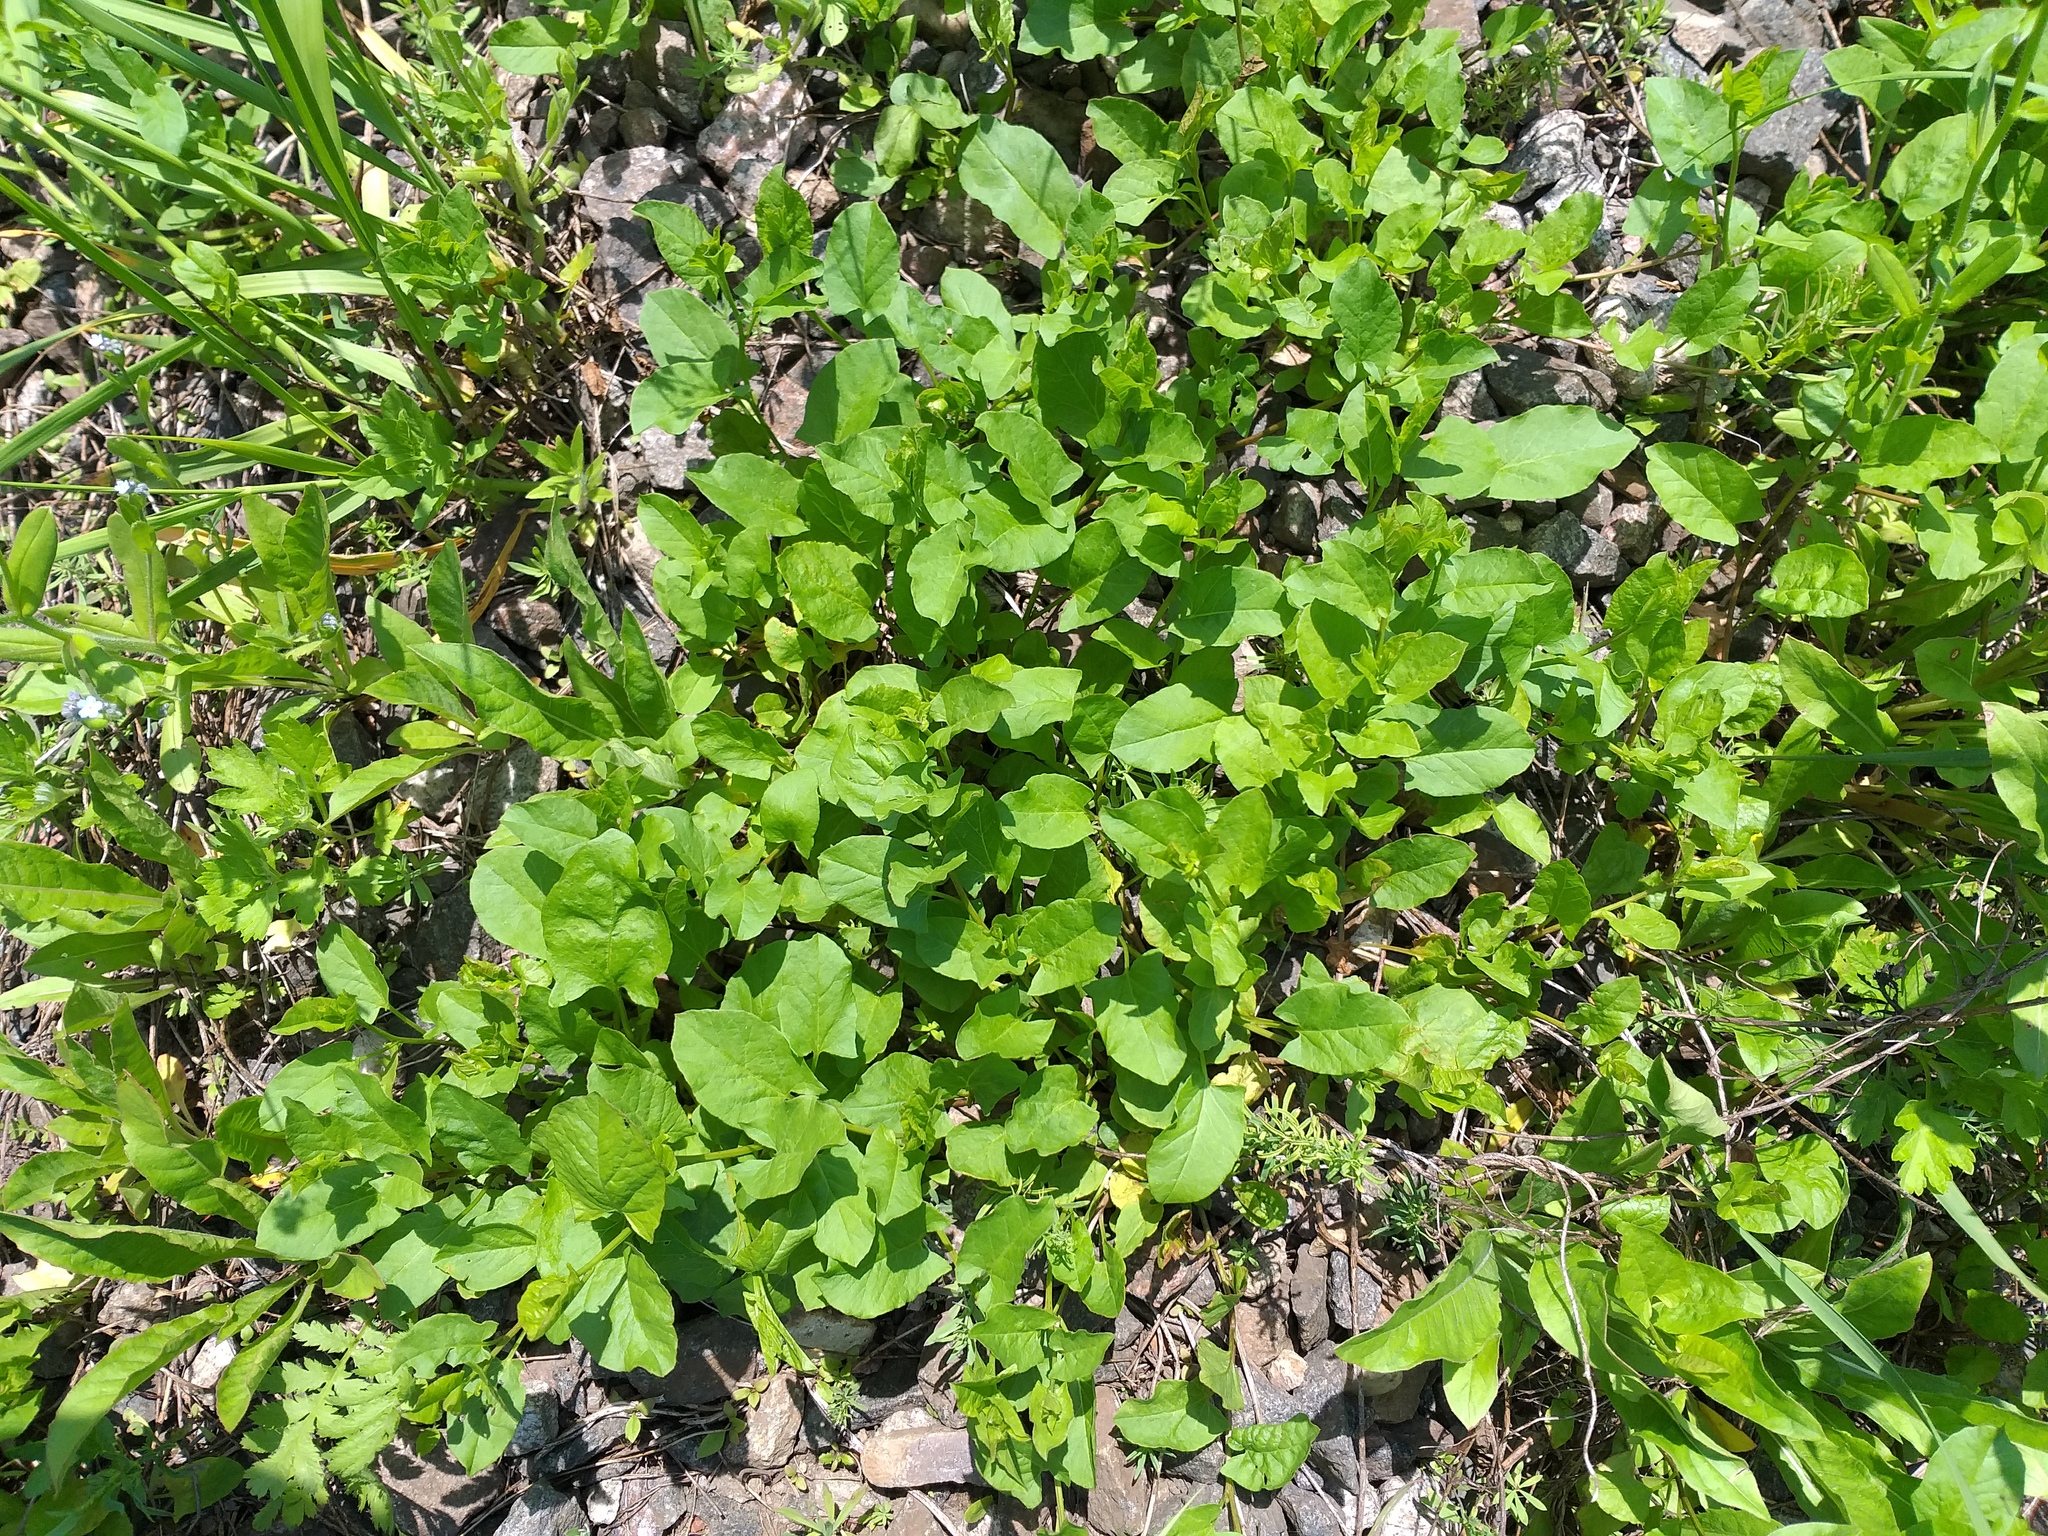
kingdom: Plantae
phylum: Tracheophyta
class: Magnoliopsida
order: Solanales
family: Convolvulaceae
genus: Convolvulus
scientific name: Convolvulus arvensis
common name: Field bindweed
